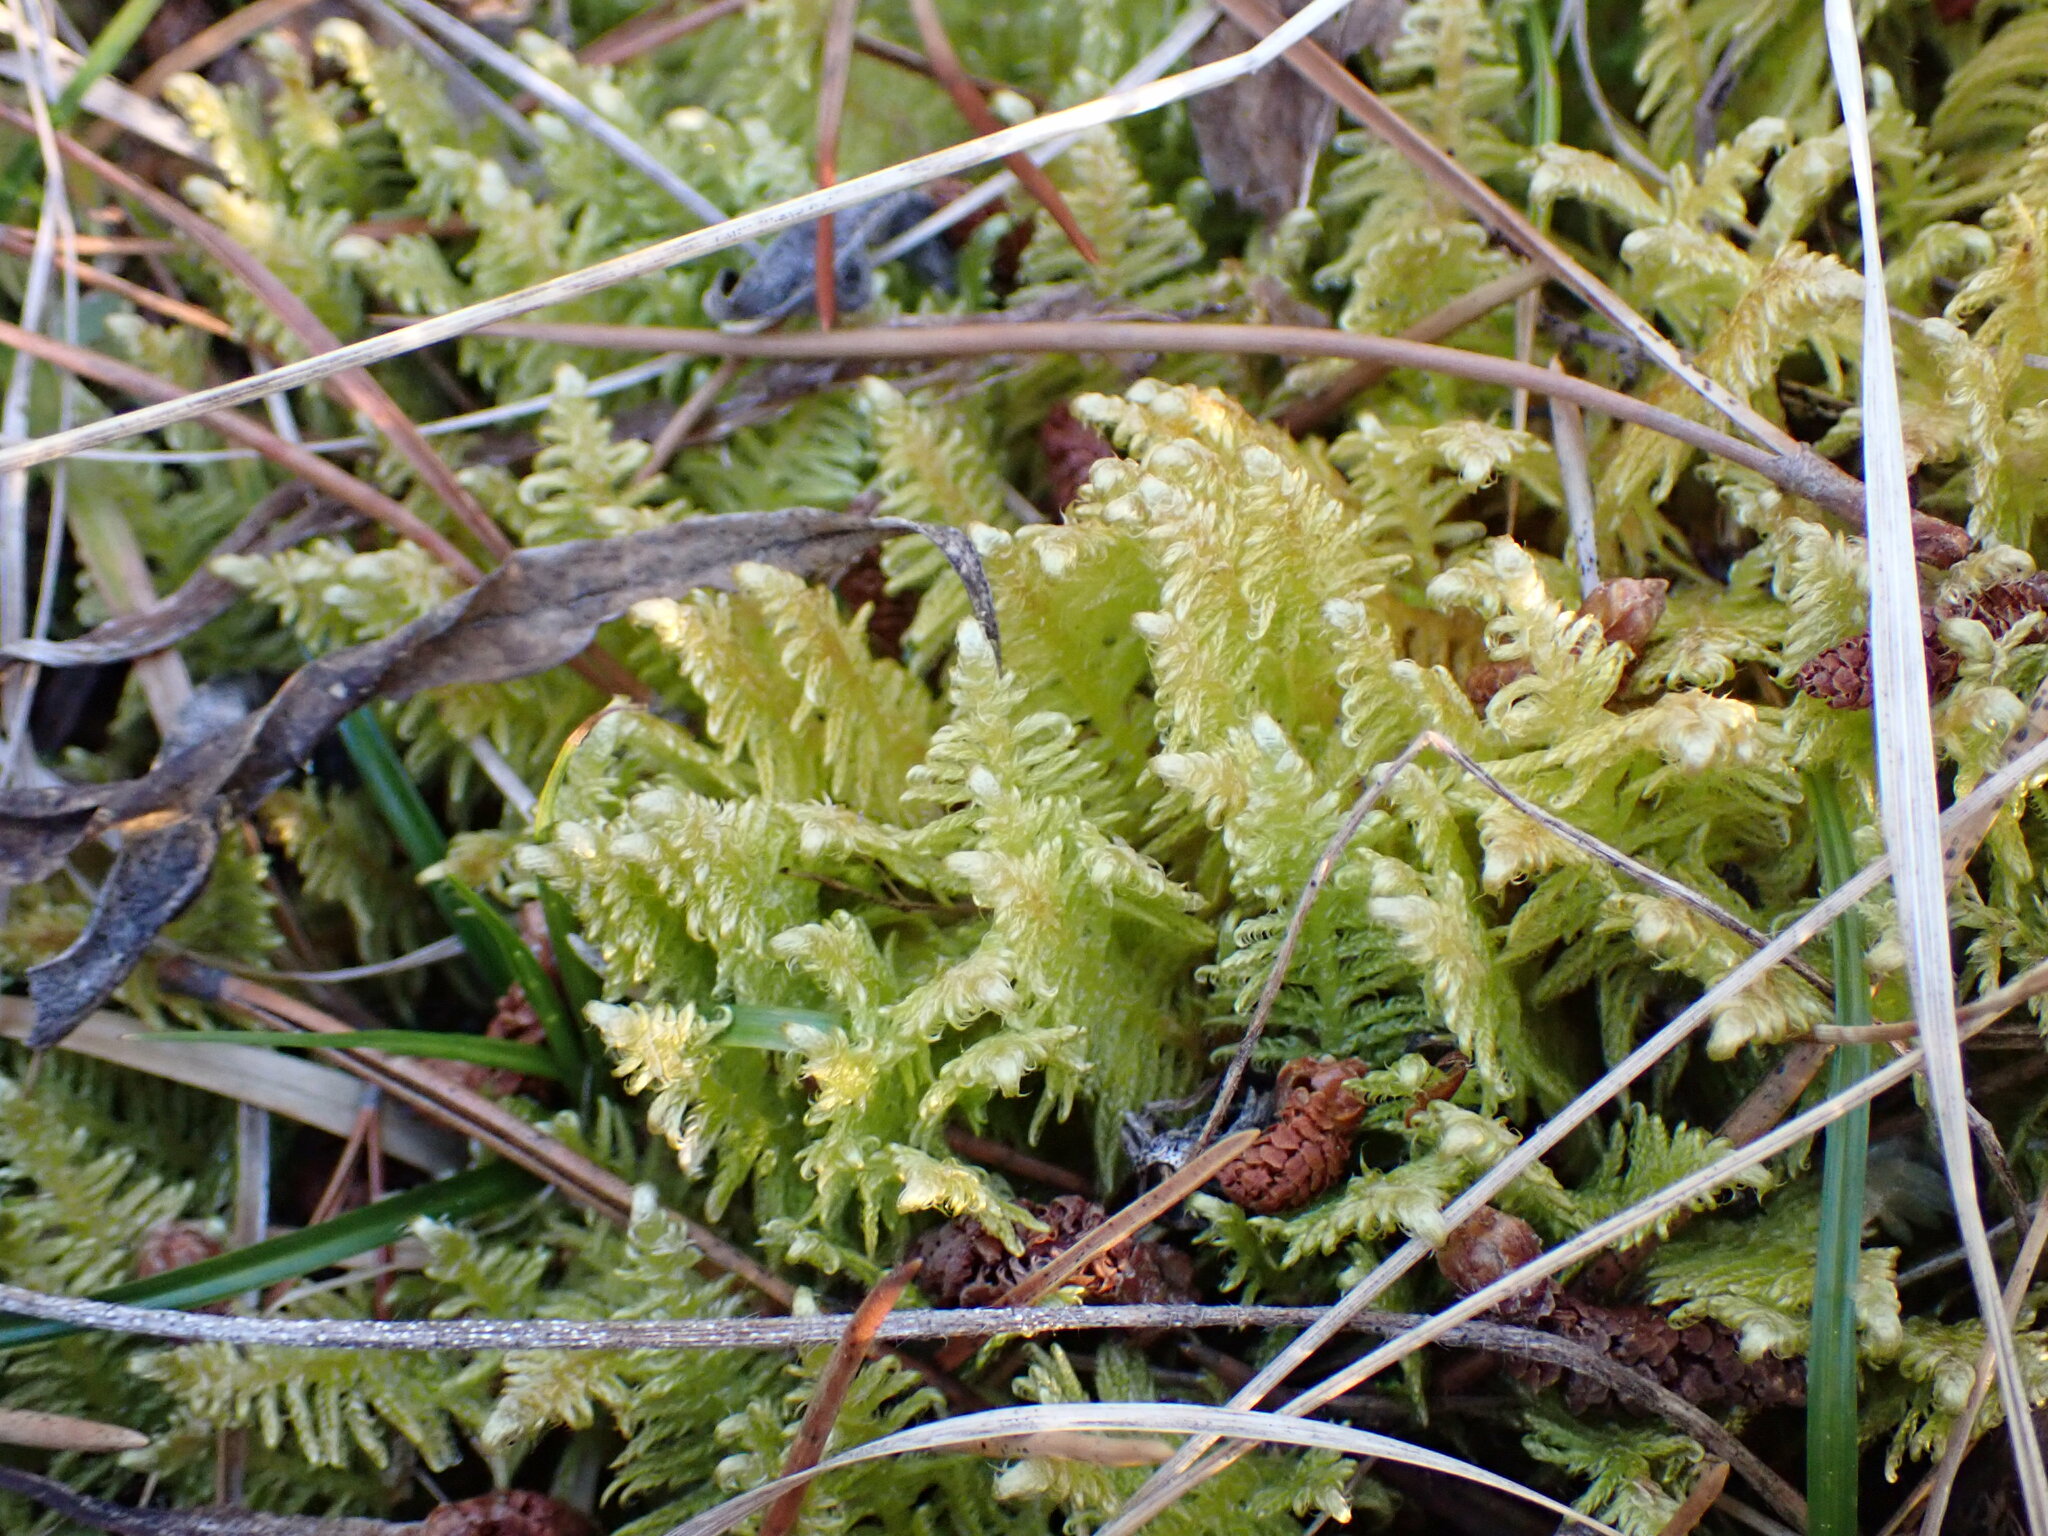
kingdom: Plantae
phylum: Bryophyta
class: Bryopsida
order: Hypnales
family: Pylaisiaceae
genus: Ptilium
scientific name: Ptilium crista-castrensis
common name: Knight's plume moss
